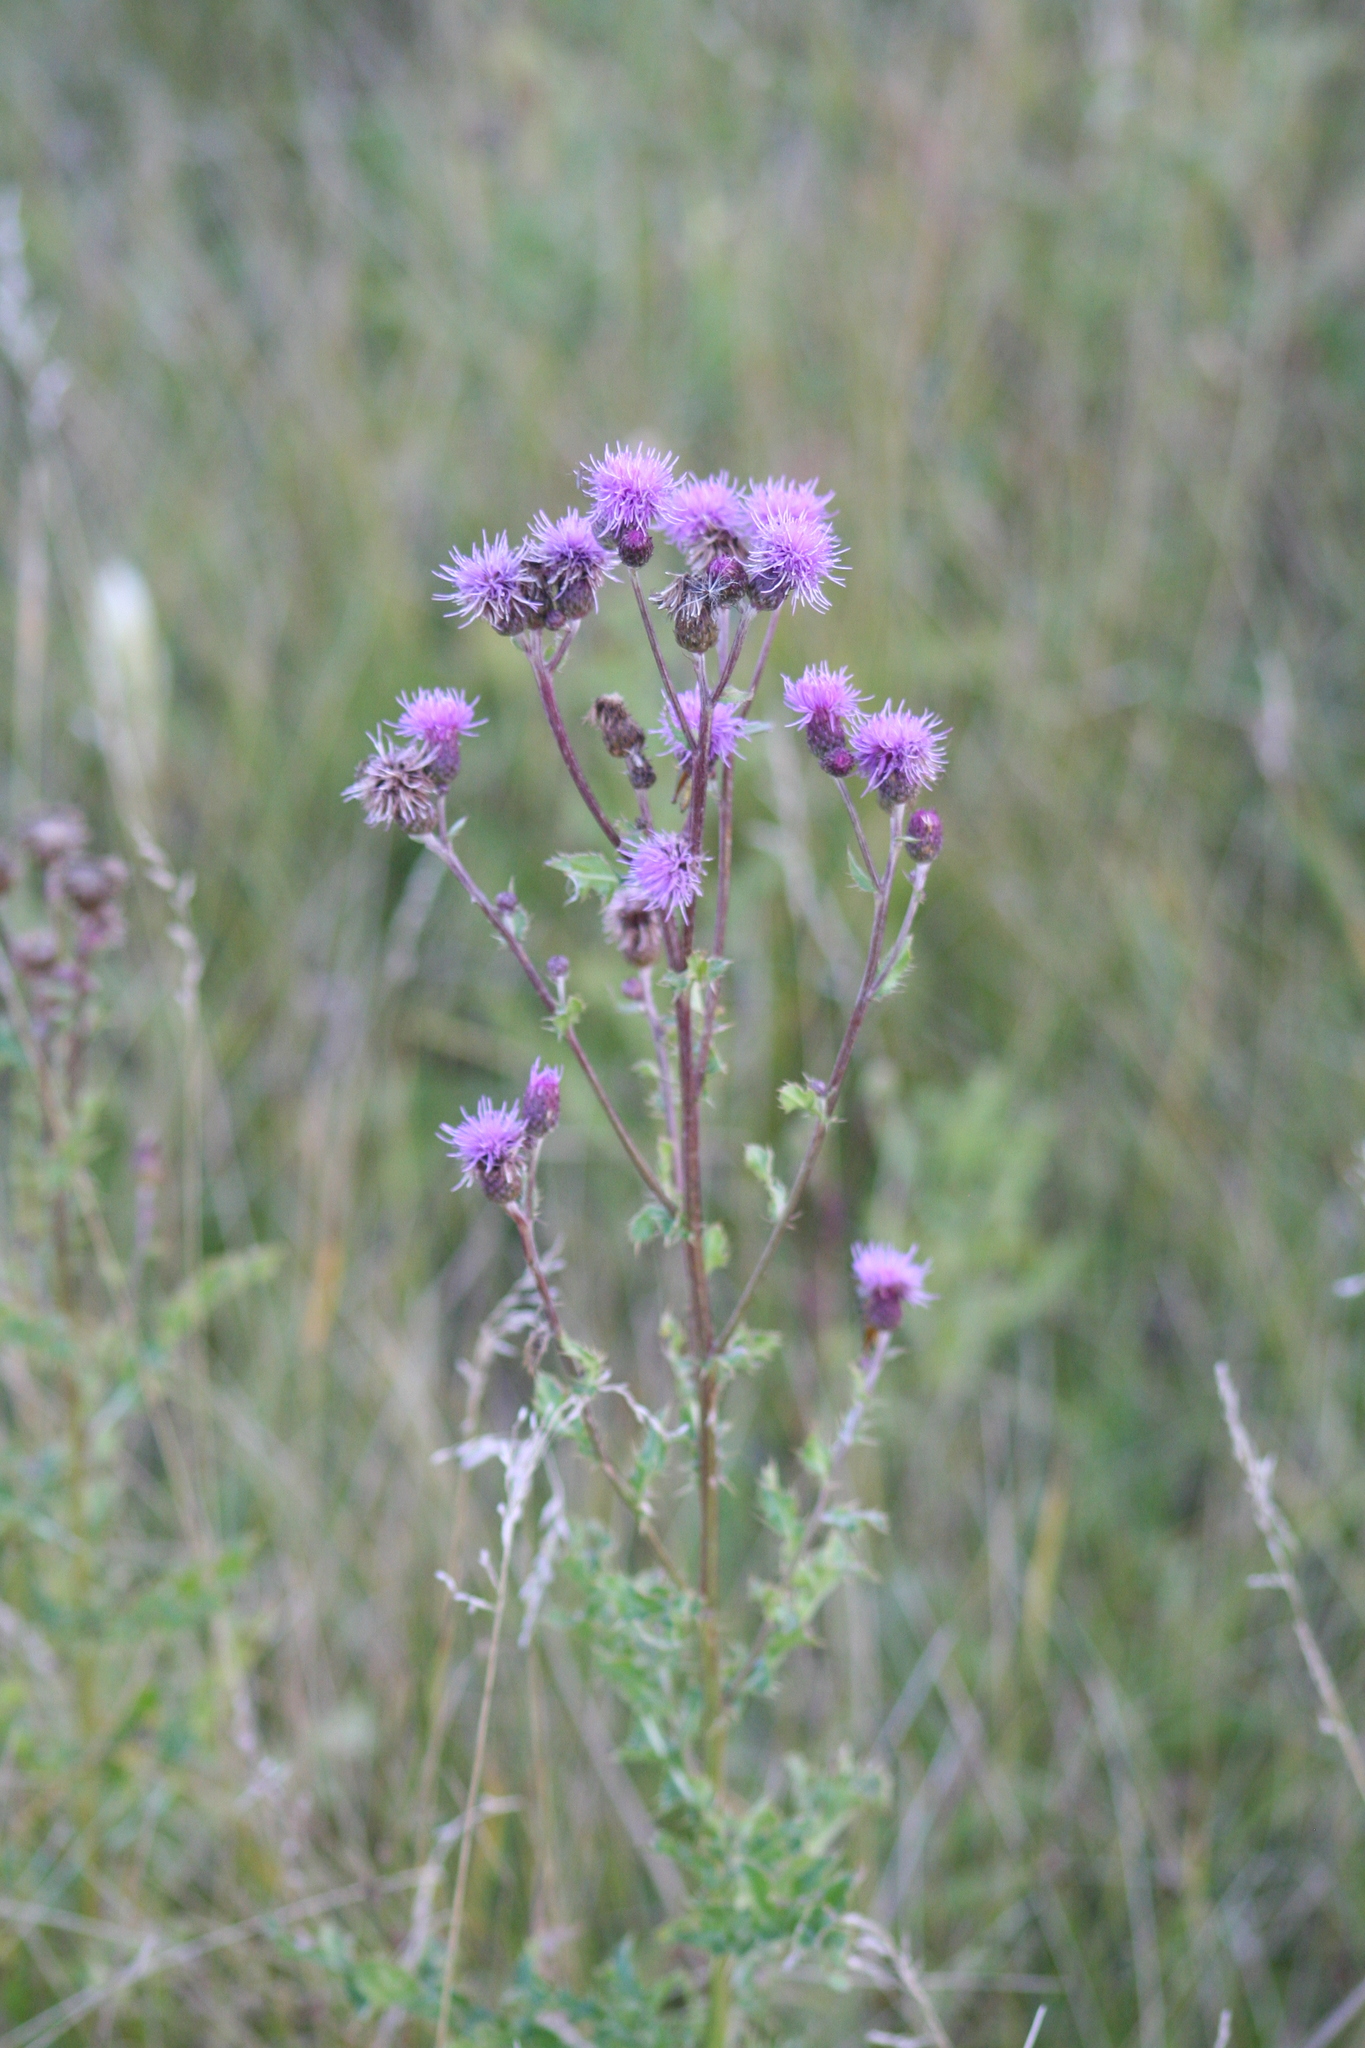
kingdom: Plantae
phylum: Tracheophyta
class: Magnoliopsida
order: Asterales
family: Asteraceae
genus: Cirsium
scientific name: Cirsium arvense
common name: Creeping thistle
